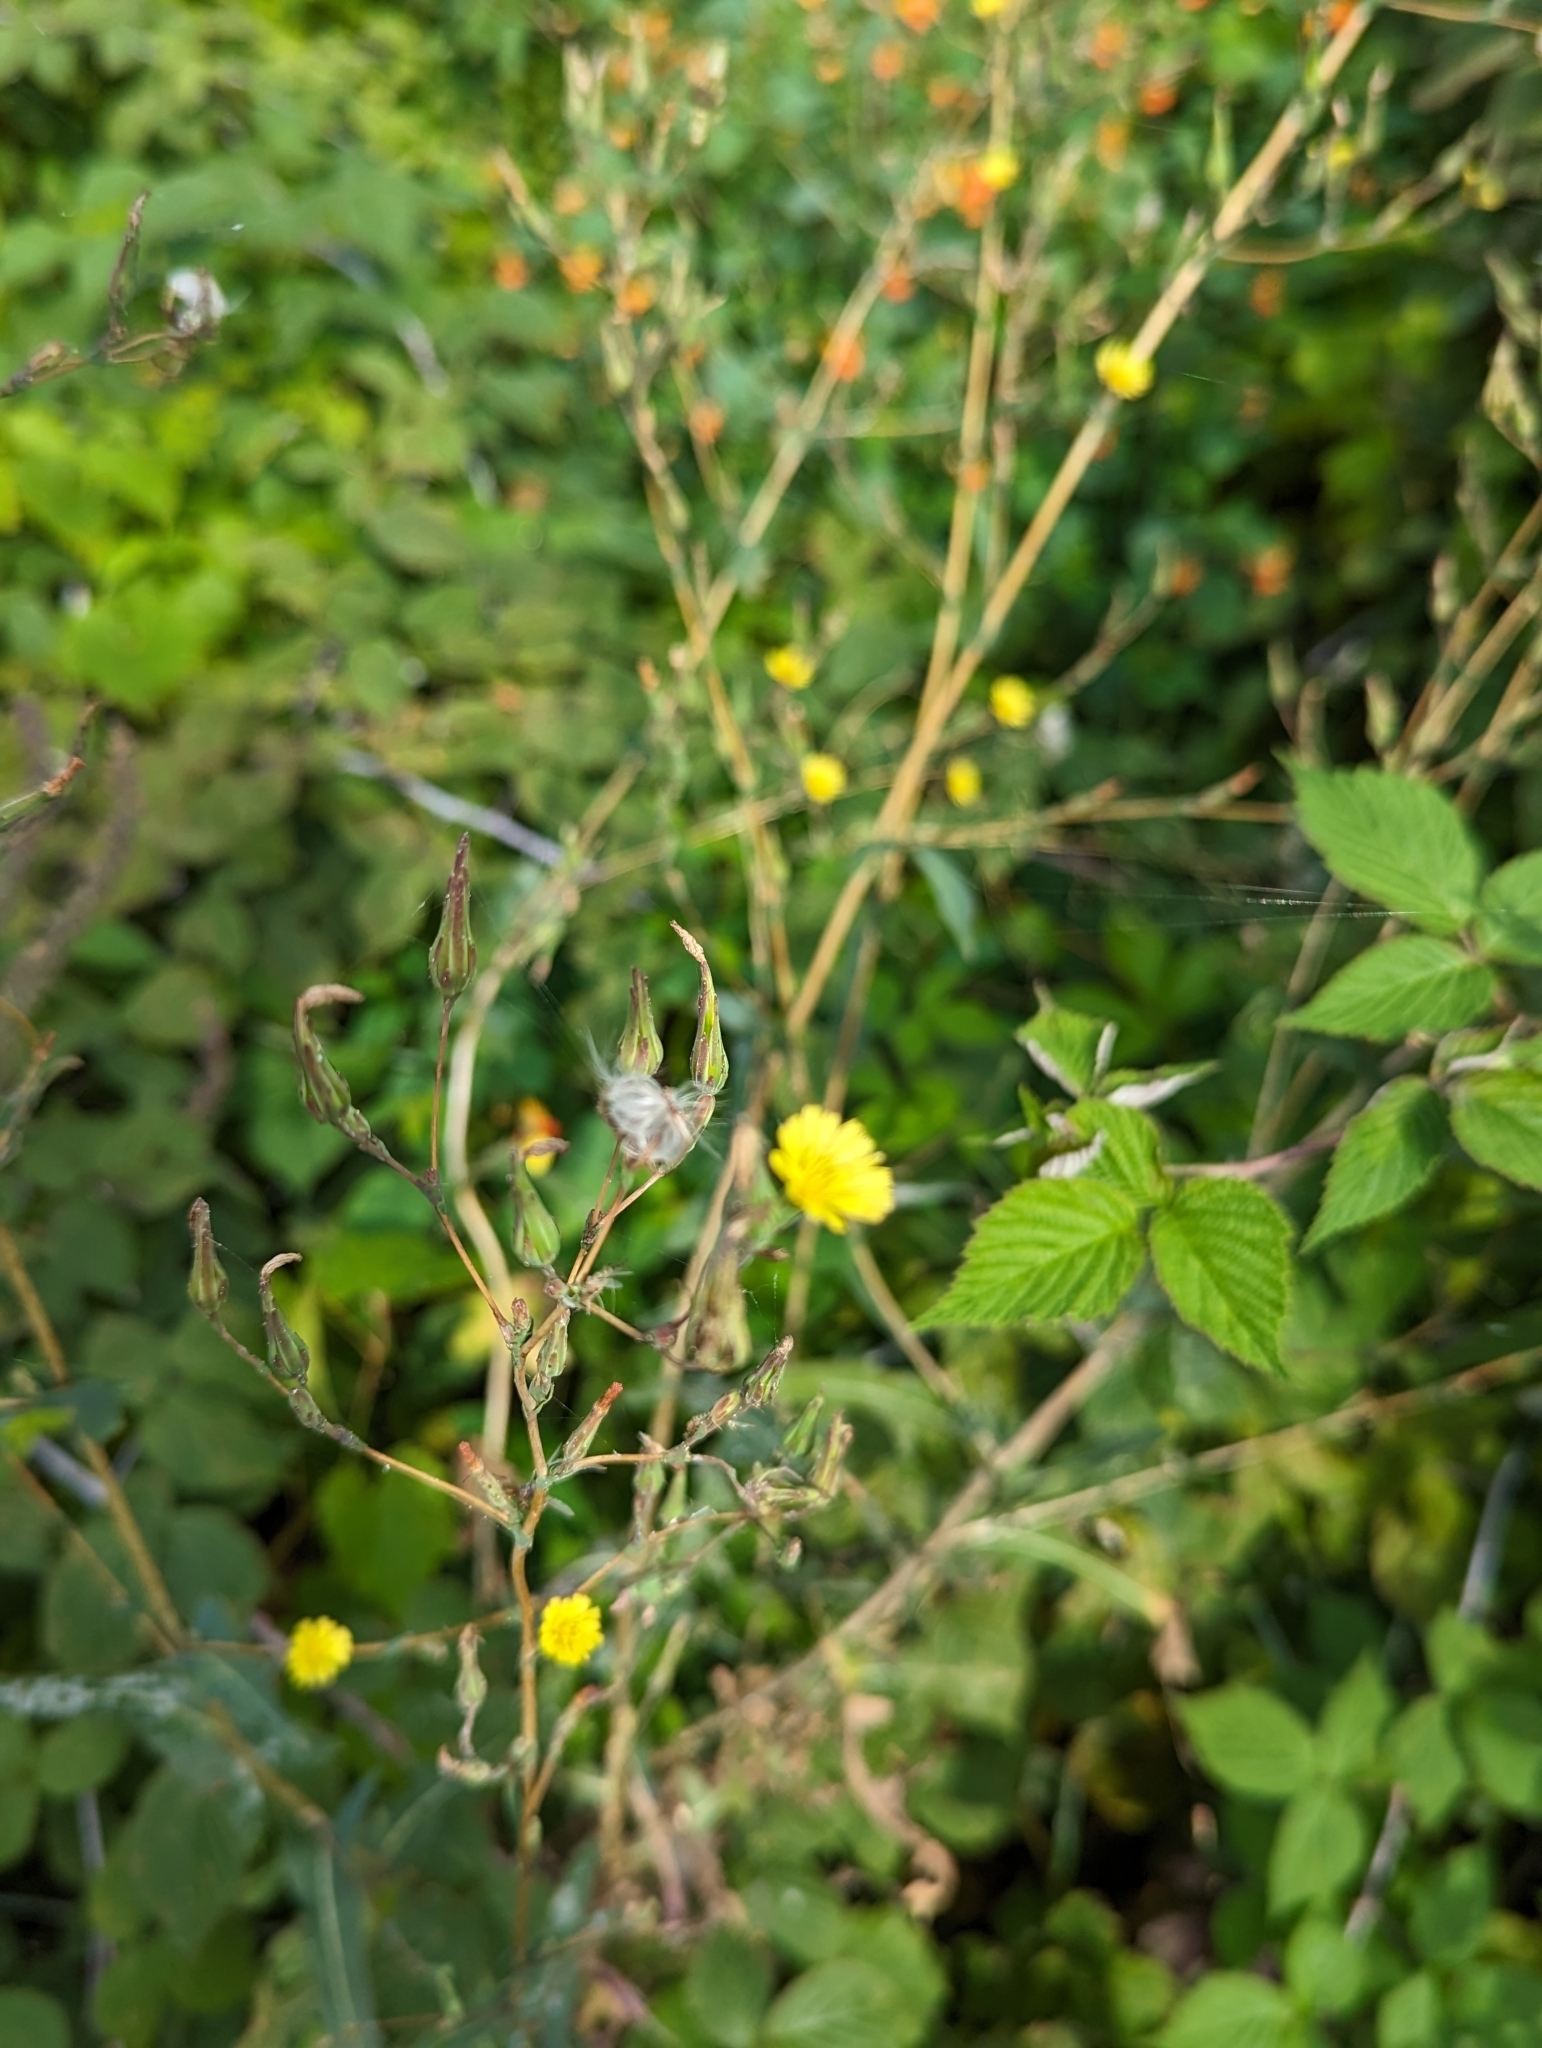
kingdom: Plantae
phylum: Tracheophyta
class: Magnoliopsida
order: Asterales
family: Asteraceae
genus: Lactuca
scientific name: Lactuca serriola
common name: Prickly lettuce
